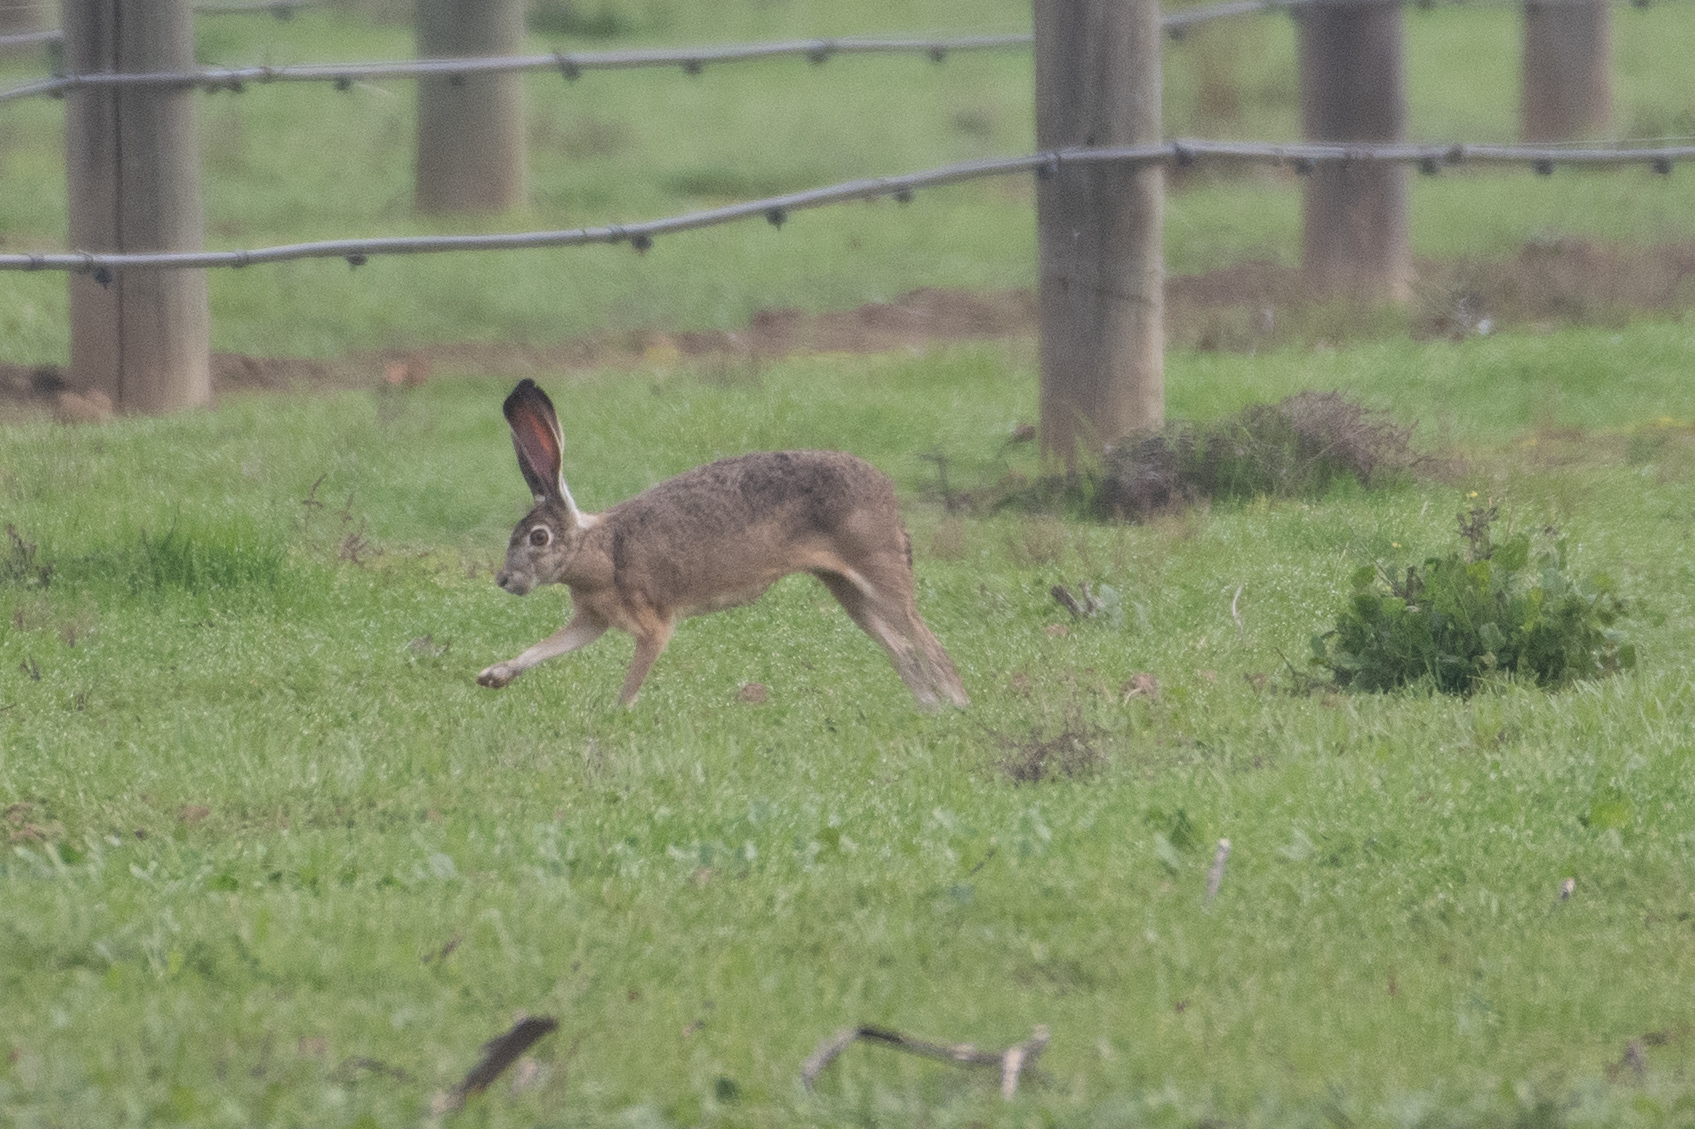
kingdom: Animalia
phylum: Chordata
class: Mammalia
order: Lagomorpha
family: Leporidae
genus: Lepus
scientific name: Lepus californicus
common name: Black-tailed jackrabbit
